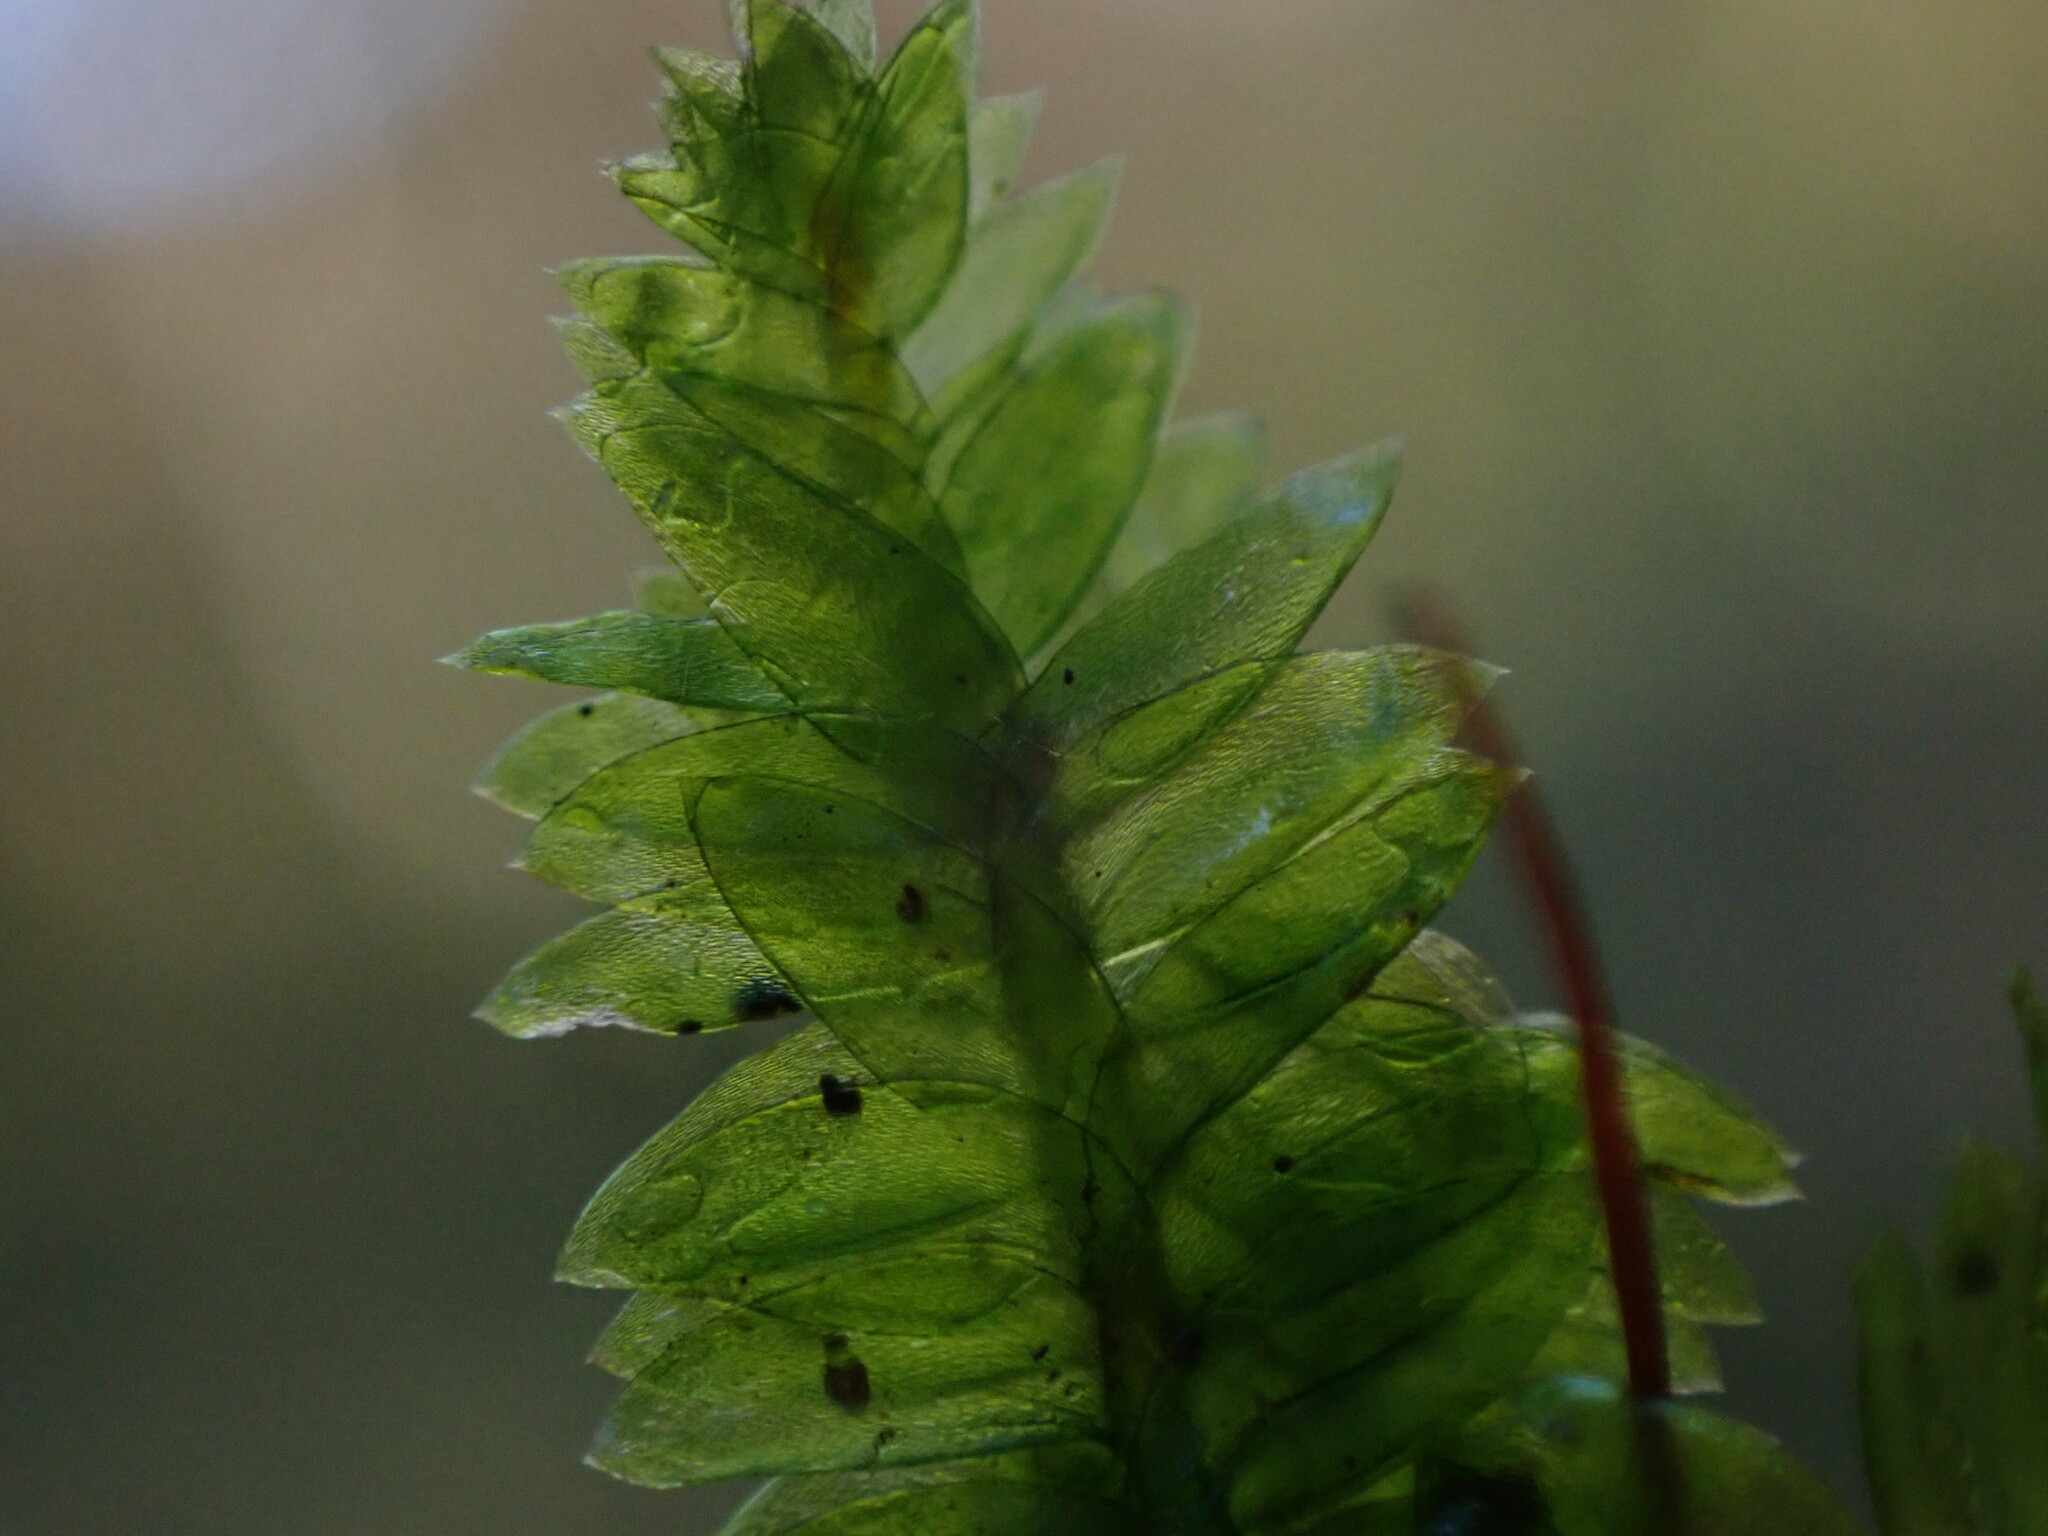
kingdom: Plantae
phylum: Bryophyta
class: Bryopsida
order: Hypnales
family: Plagiotheciaceae
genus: Plagiothecium
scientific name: Plagiothecium denticulatum
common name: Dented silk moss
